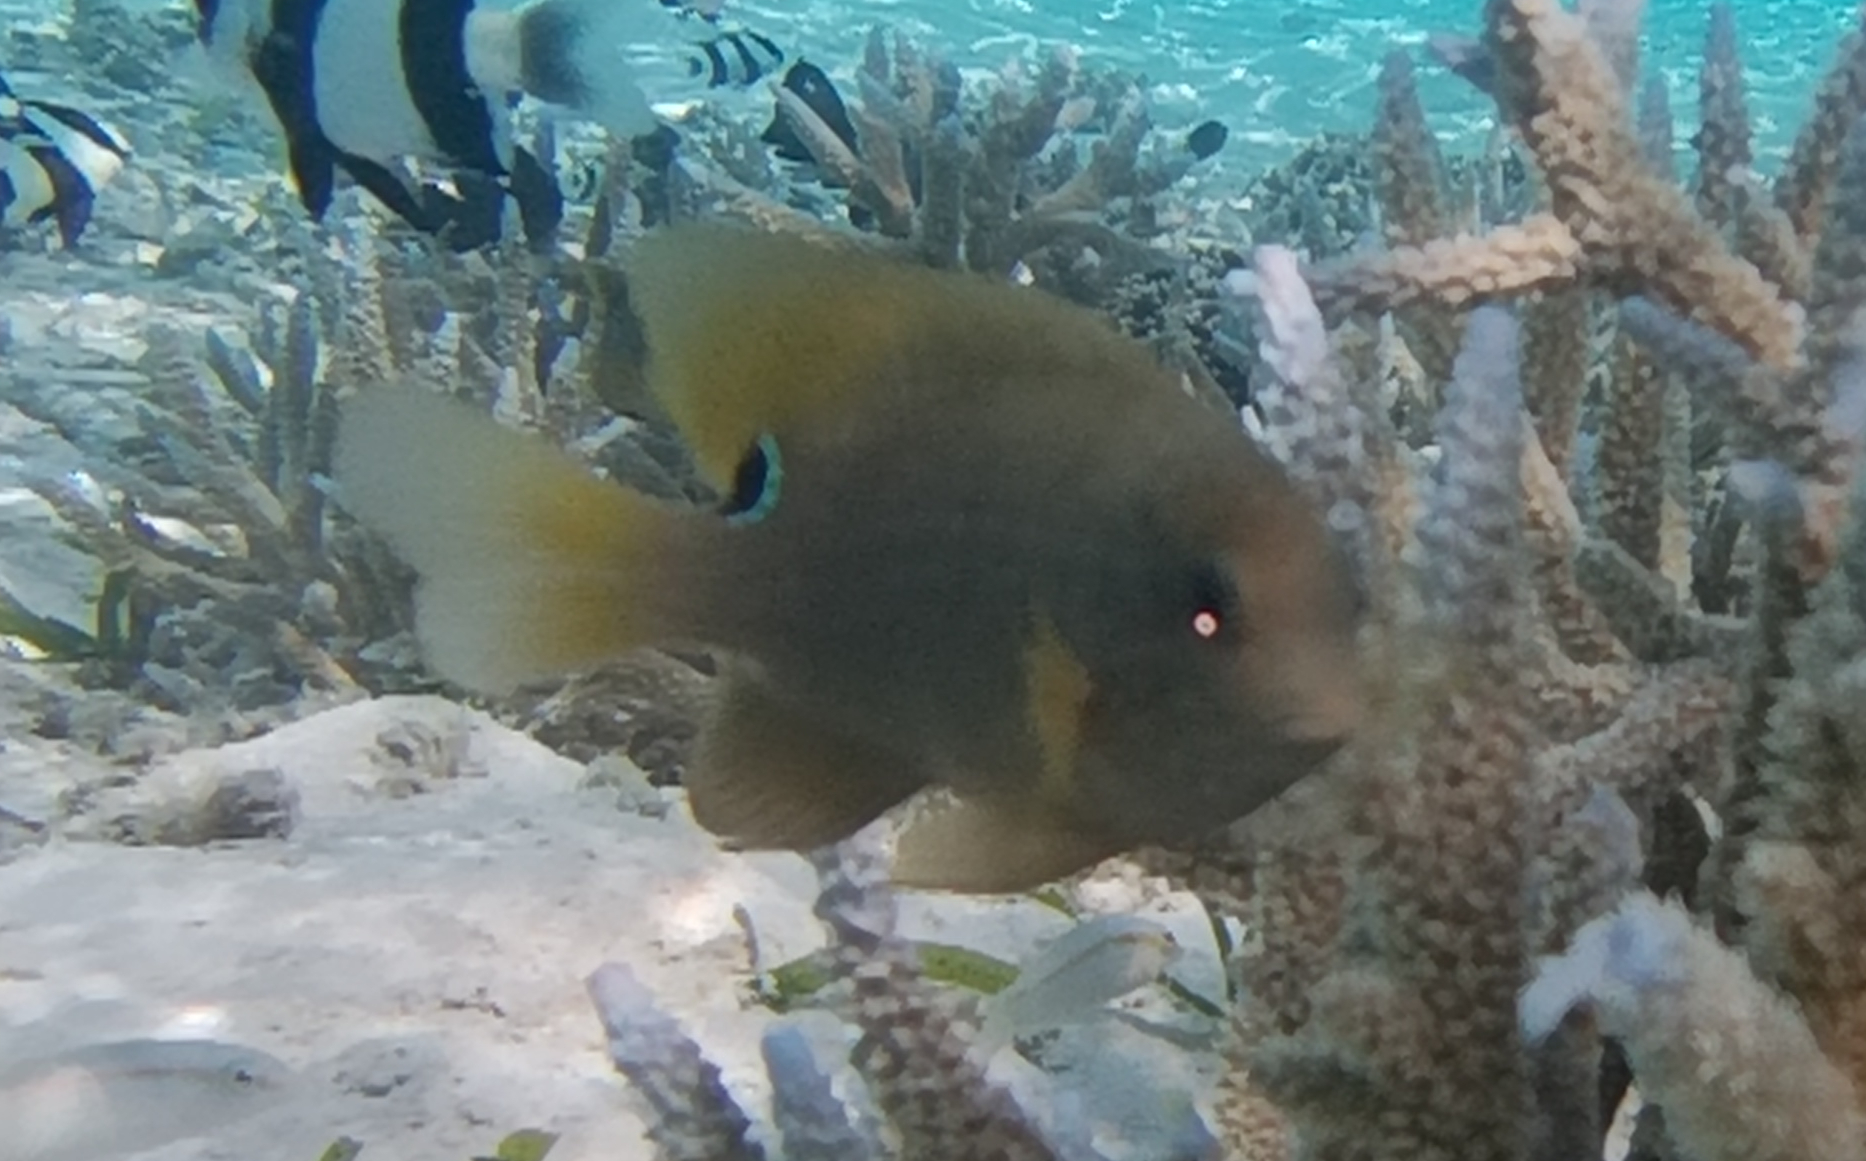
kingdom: Animalia
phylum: Chordata
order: Perciformes
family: Pomacentridae
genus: Stegastes
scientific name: Stegastes punctatus
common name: Blunt snout gregory
